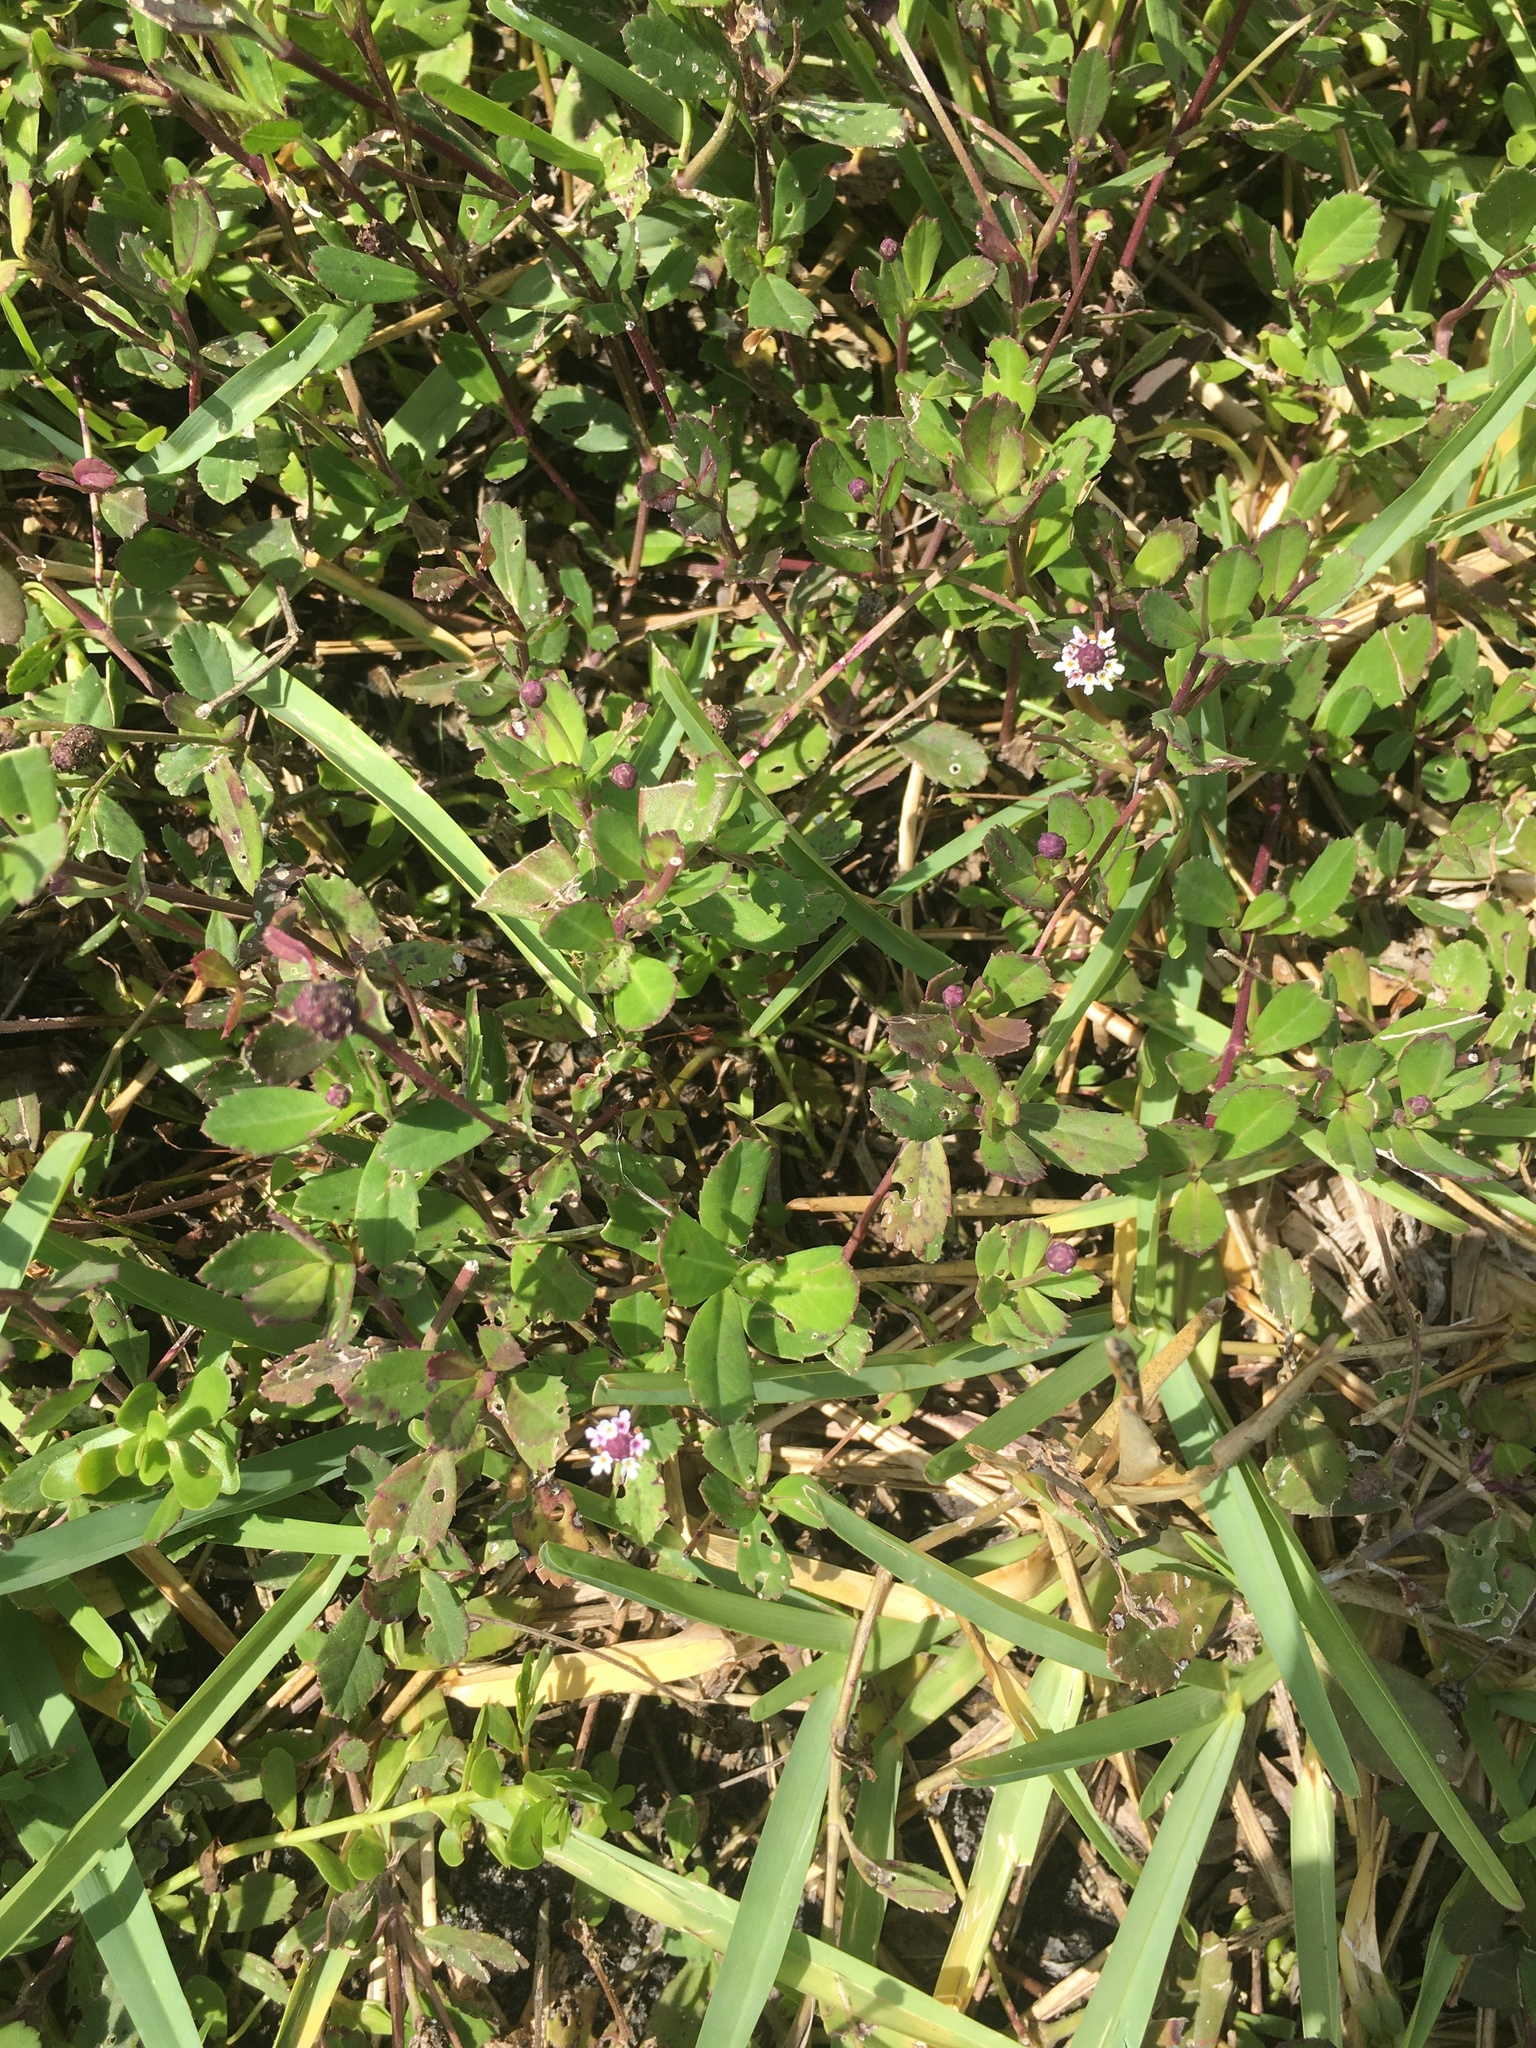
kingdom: Plantae
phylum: Tracheophyta
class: Magnoliopsida
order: Lamiales
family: Verbenaceae
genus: Phyla
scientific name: Phyla nodiflora
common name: Frogfruit
